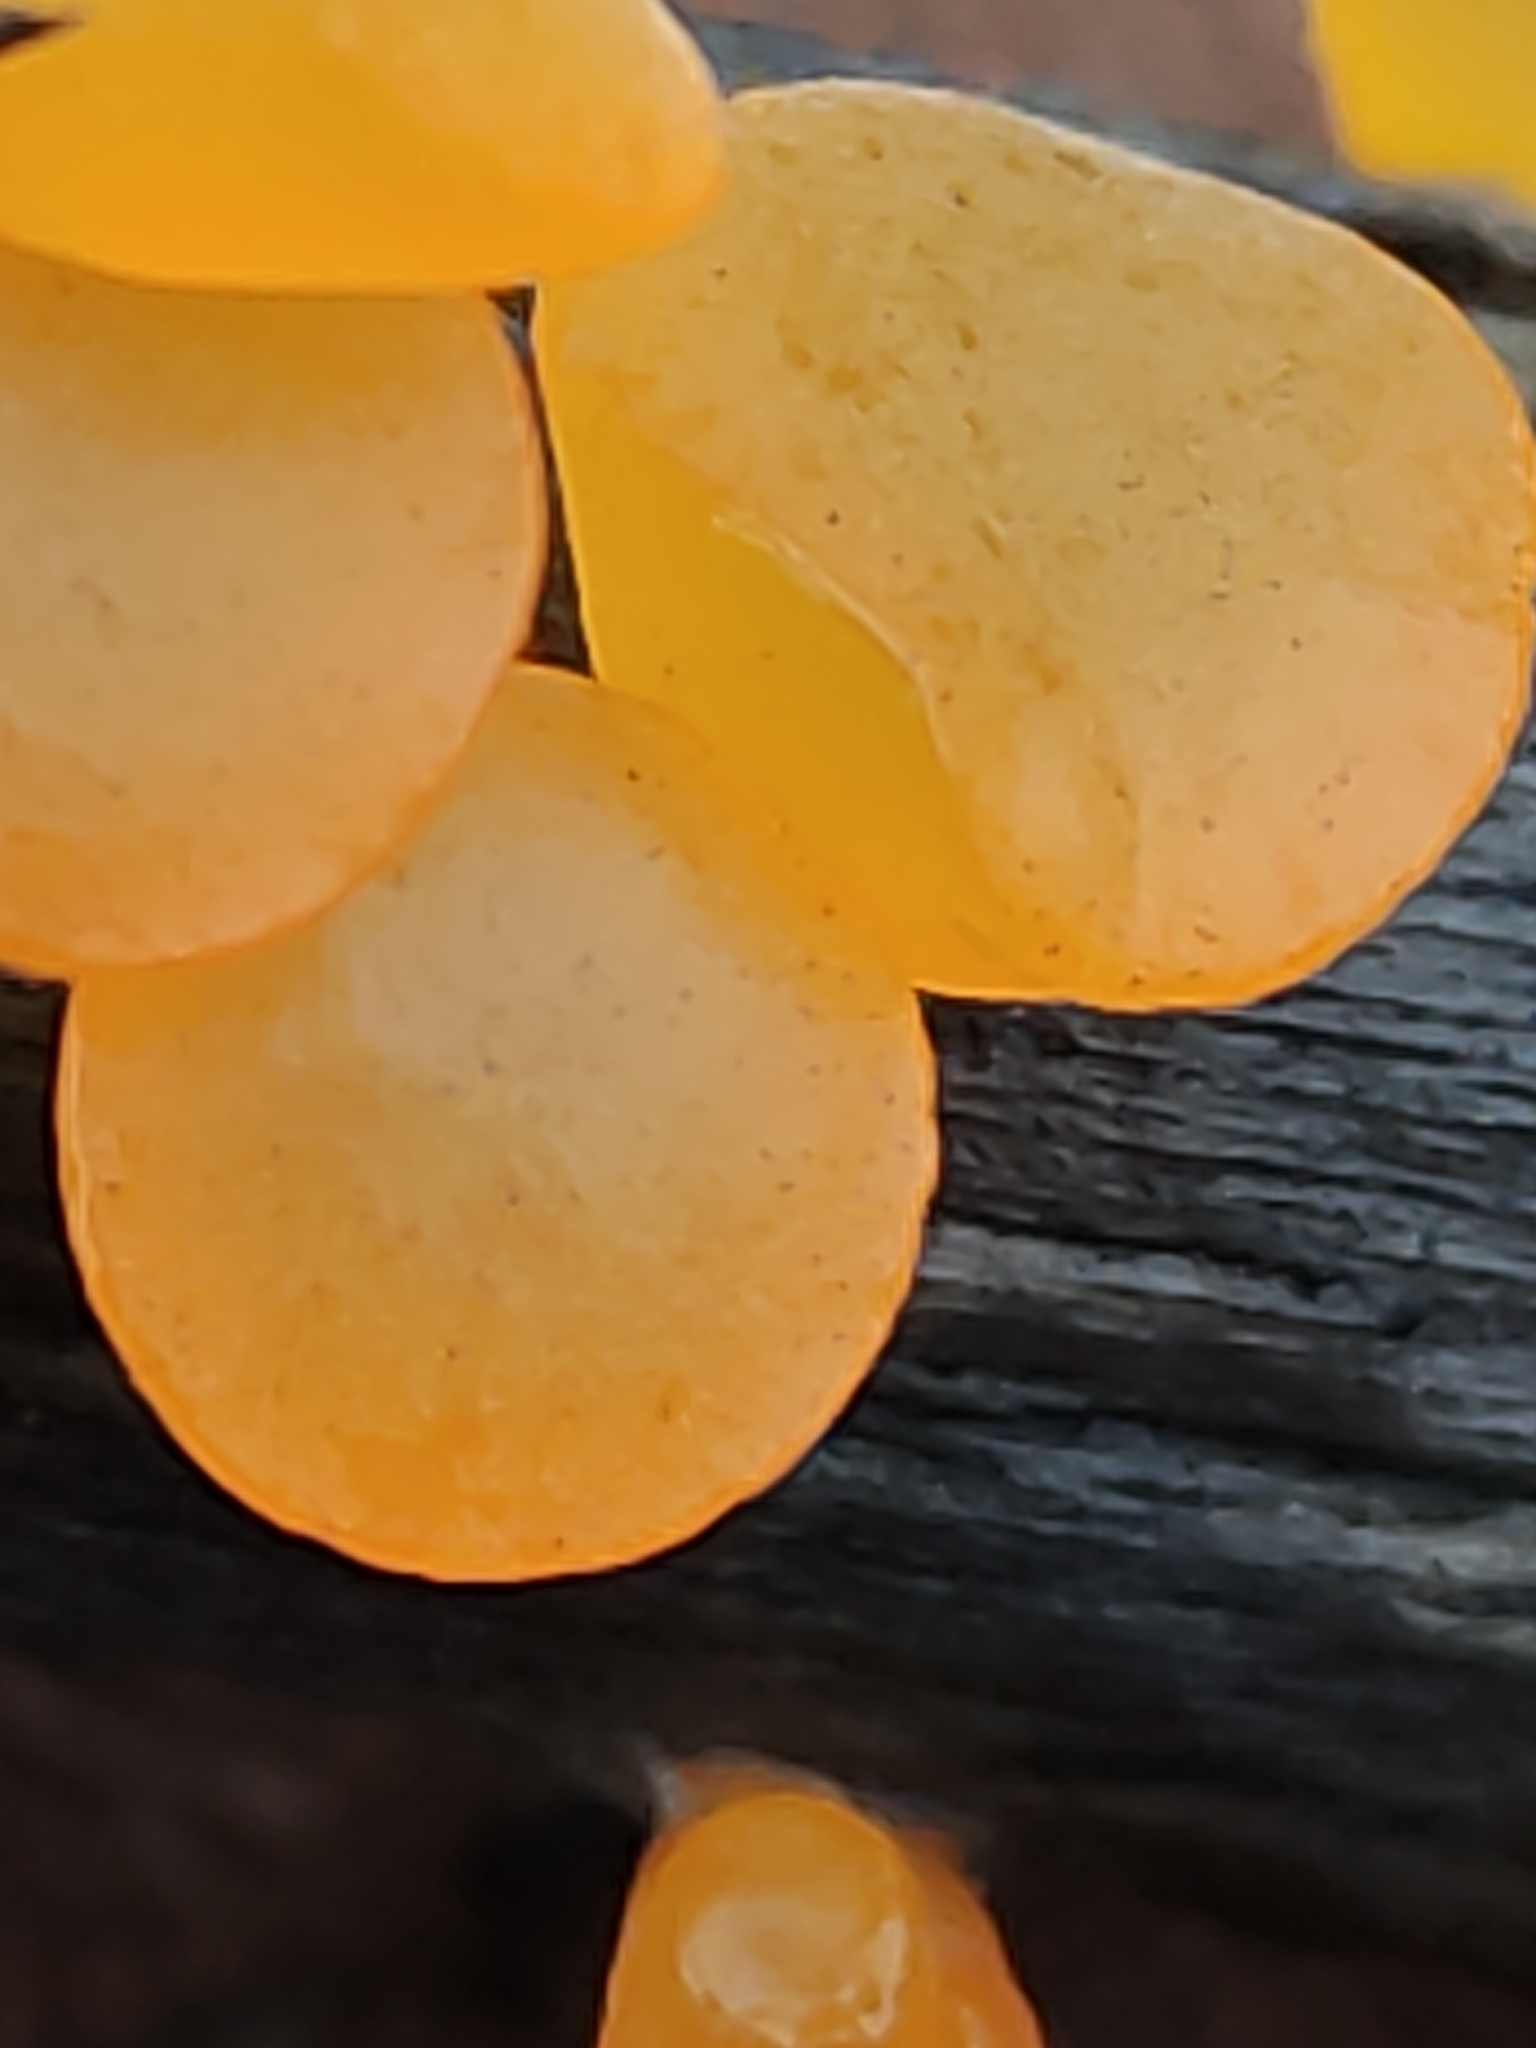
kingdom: Fungi
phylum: Basidiomycota
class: Dacrymycetes
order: Dacrymycetales
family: Dacrymycetaceae
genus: Heterotextus
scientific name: Heterotextus miltinus
